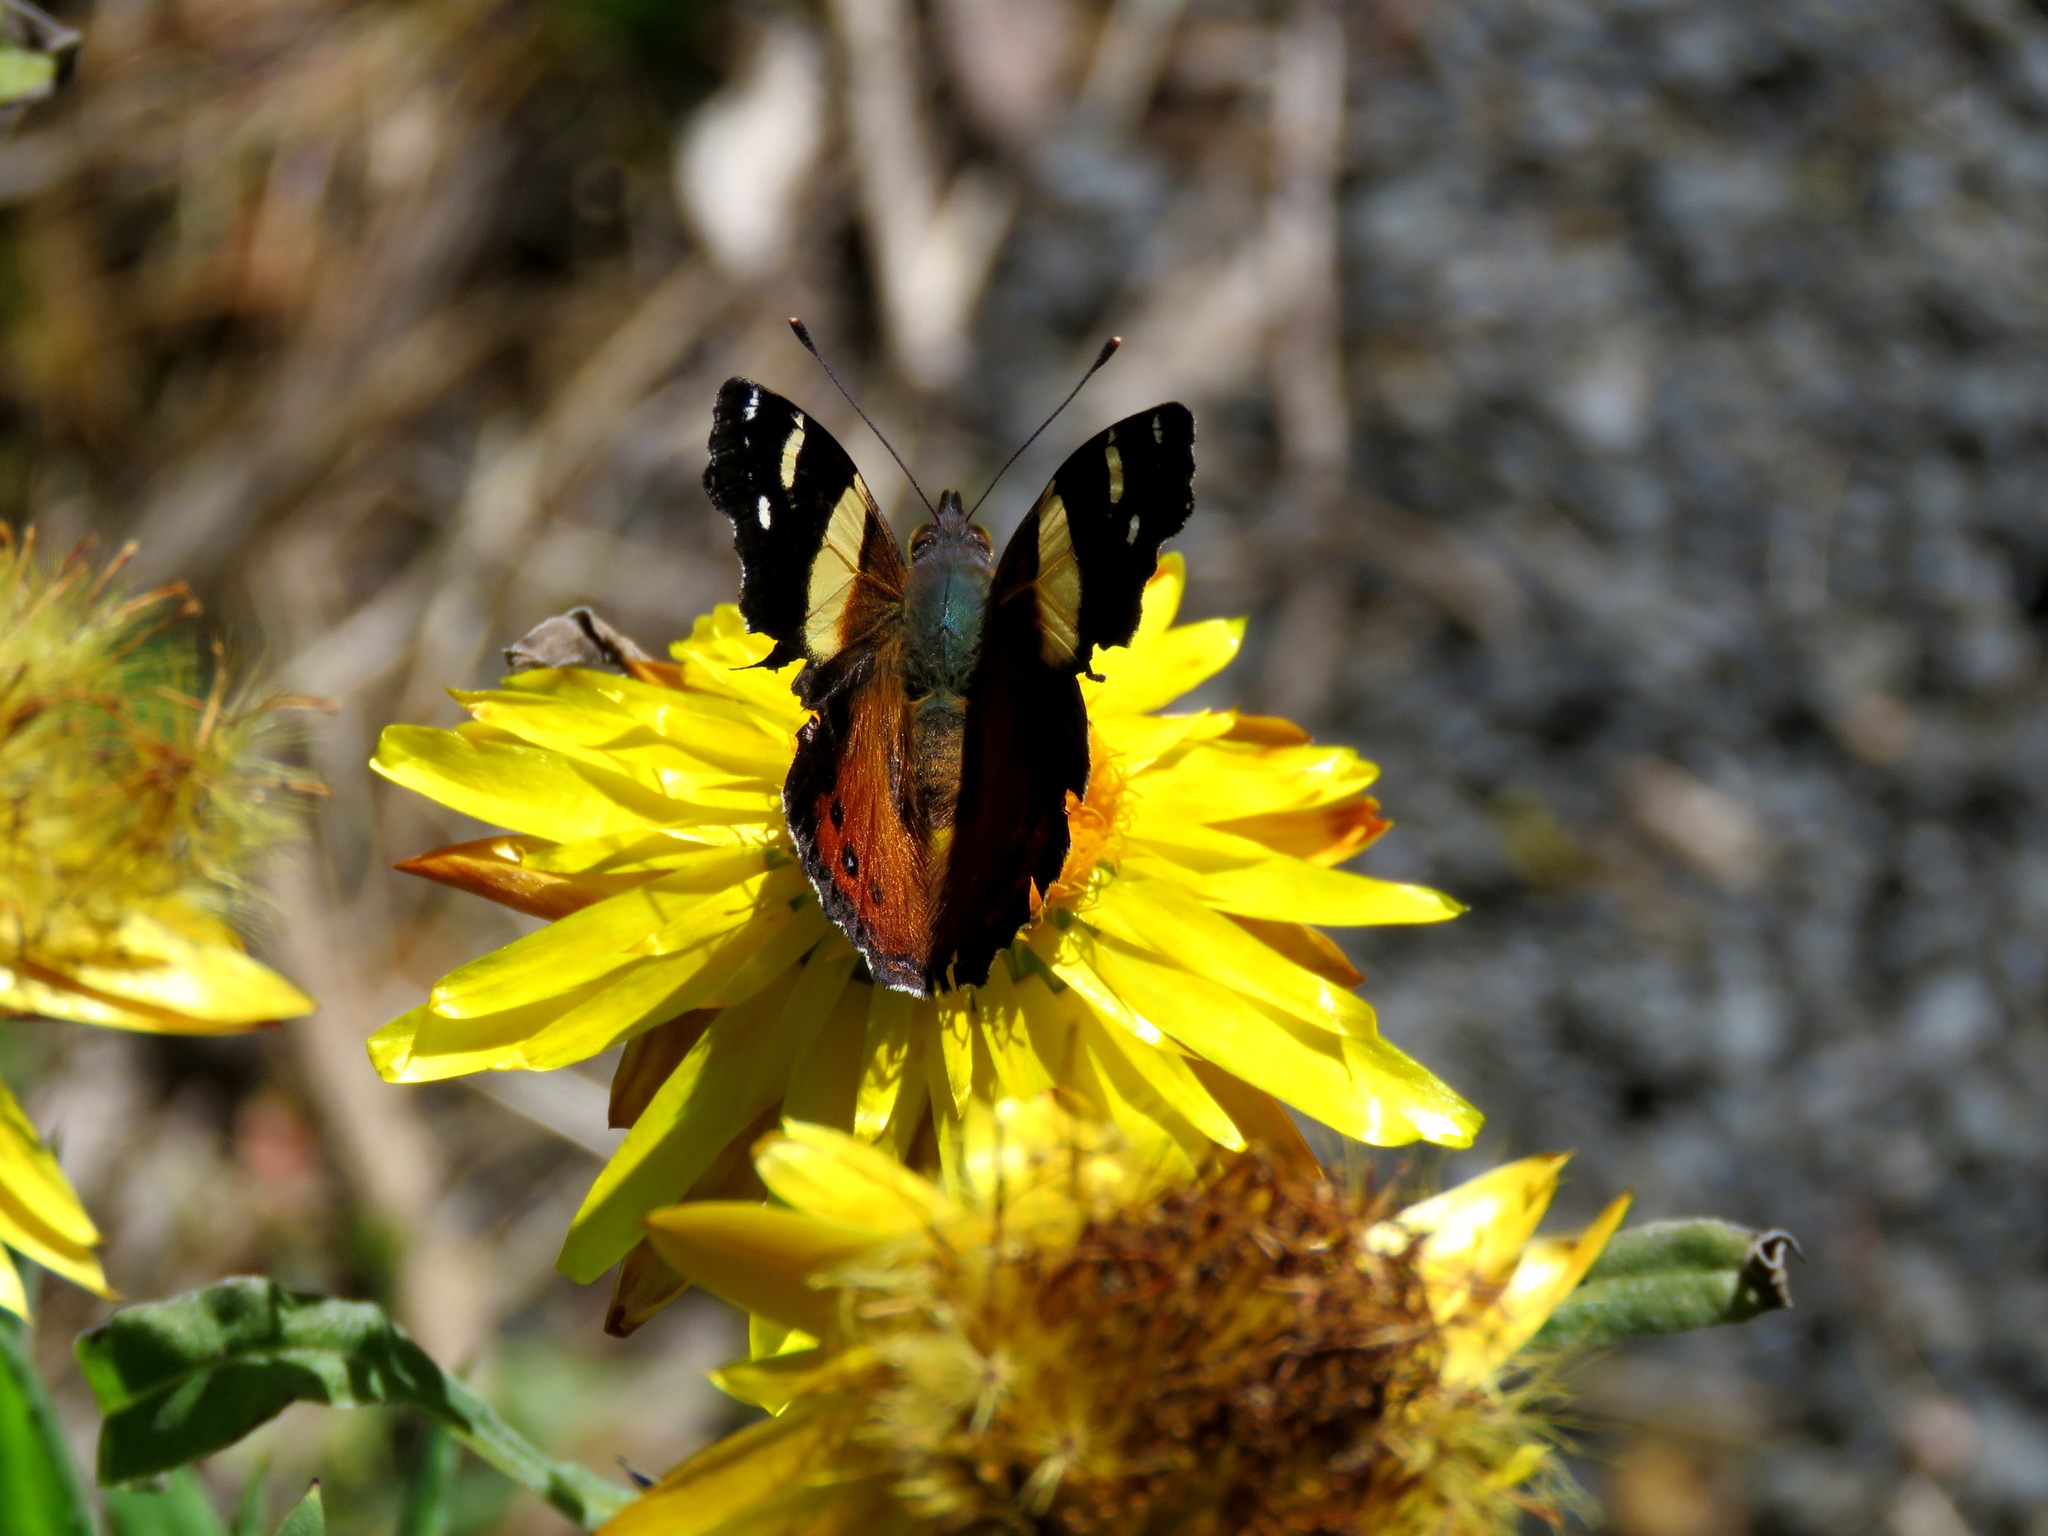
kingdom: Animalia
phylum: Arthropoda
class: Insecta
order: Lepidoptera
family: Nymphalidae
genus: Vanessa
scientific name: Vanessa itea
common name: Yellow admiral
